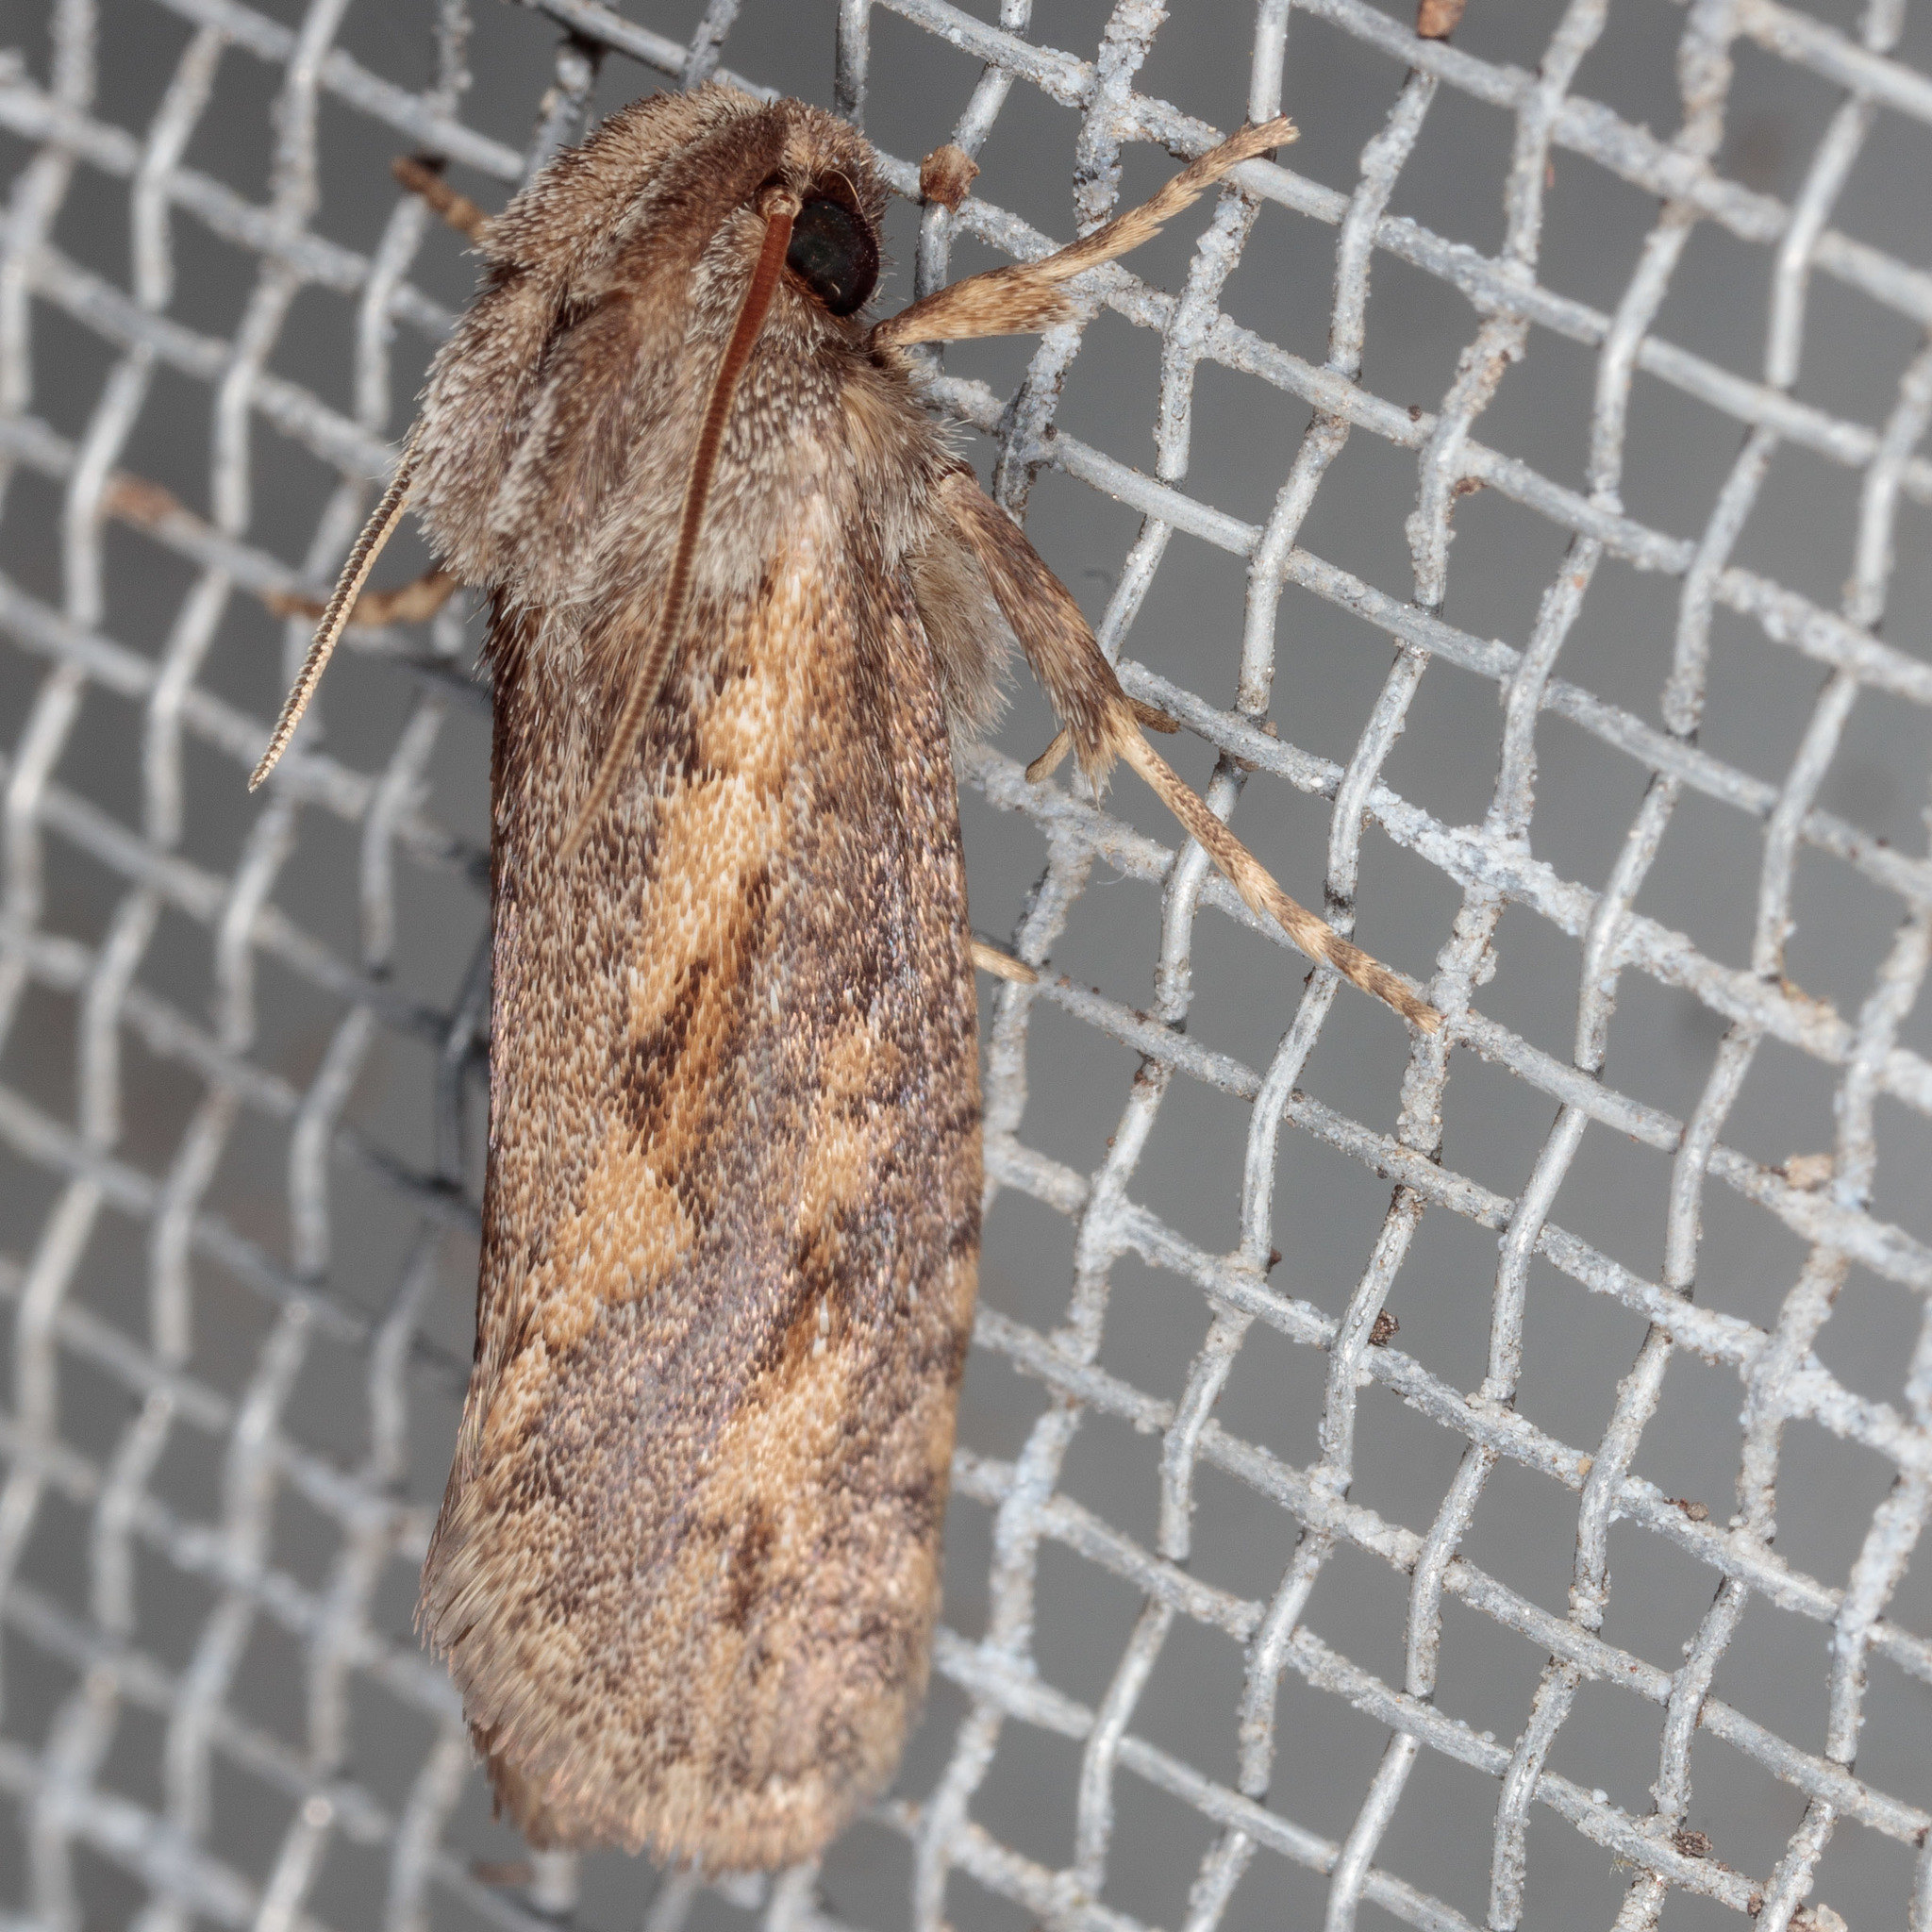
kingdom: Animalia
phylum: Arthropoda
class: Insecta
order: Lepidoptera
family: Tineidae
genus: Acrolophus
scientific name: Acrolophus popeanella
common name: Clemens' grass tubeworm moth
